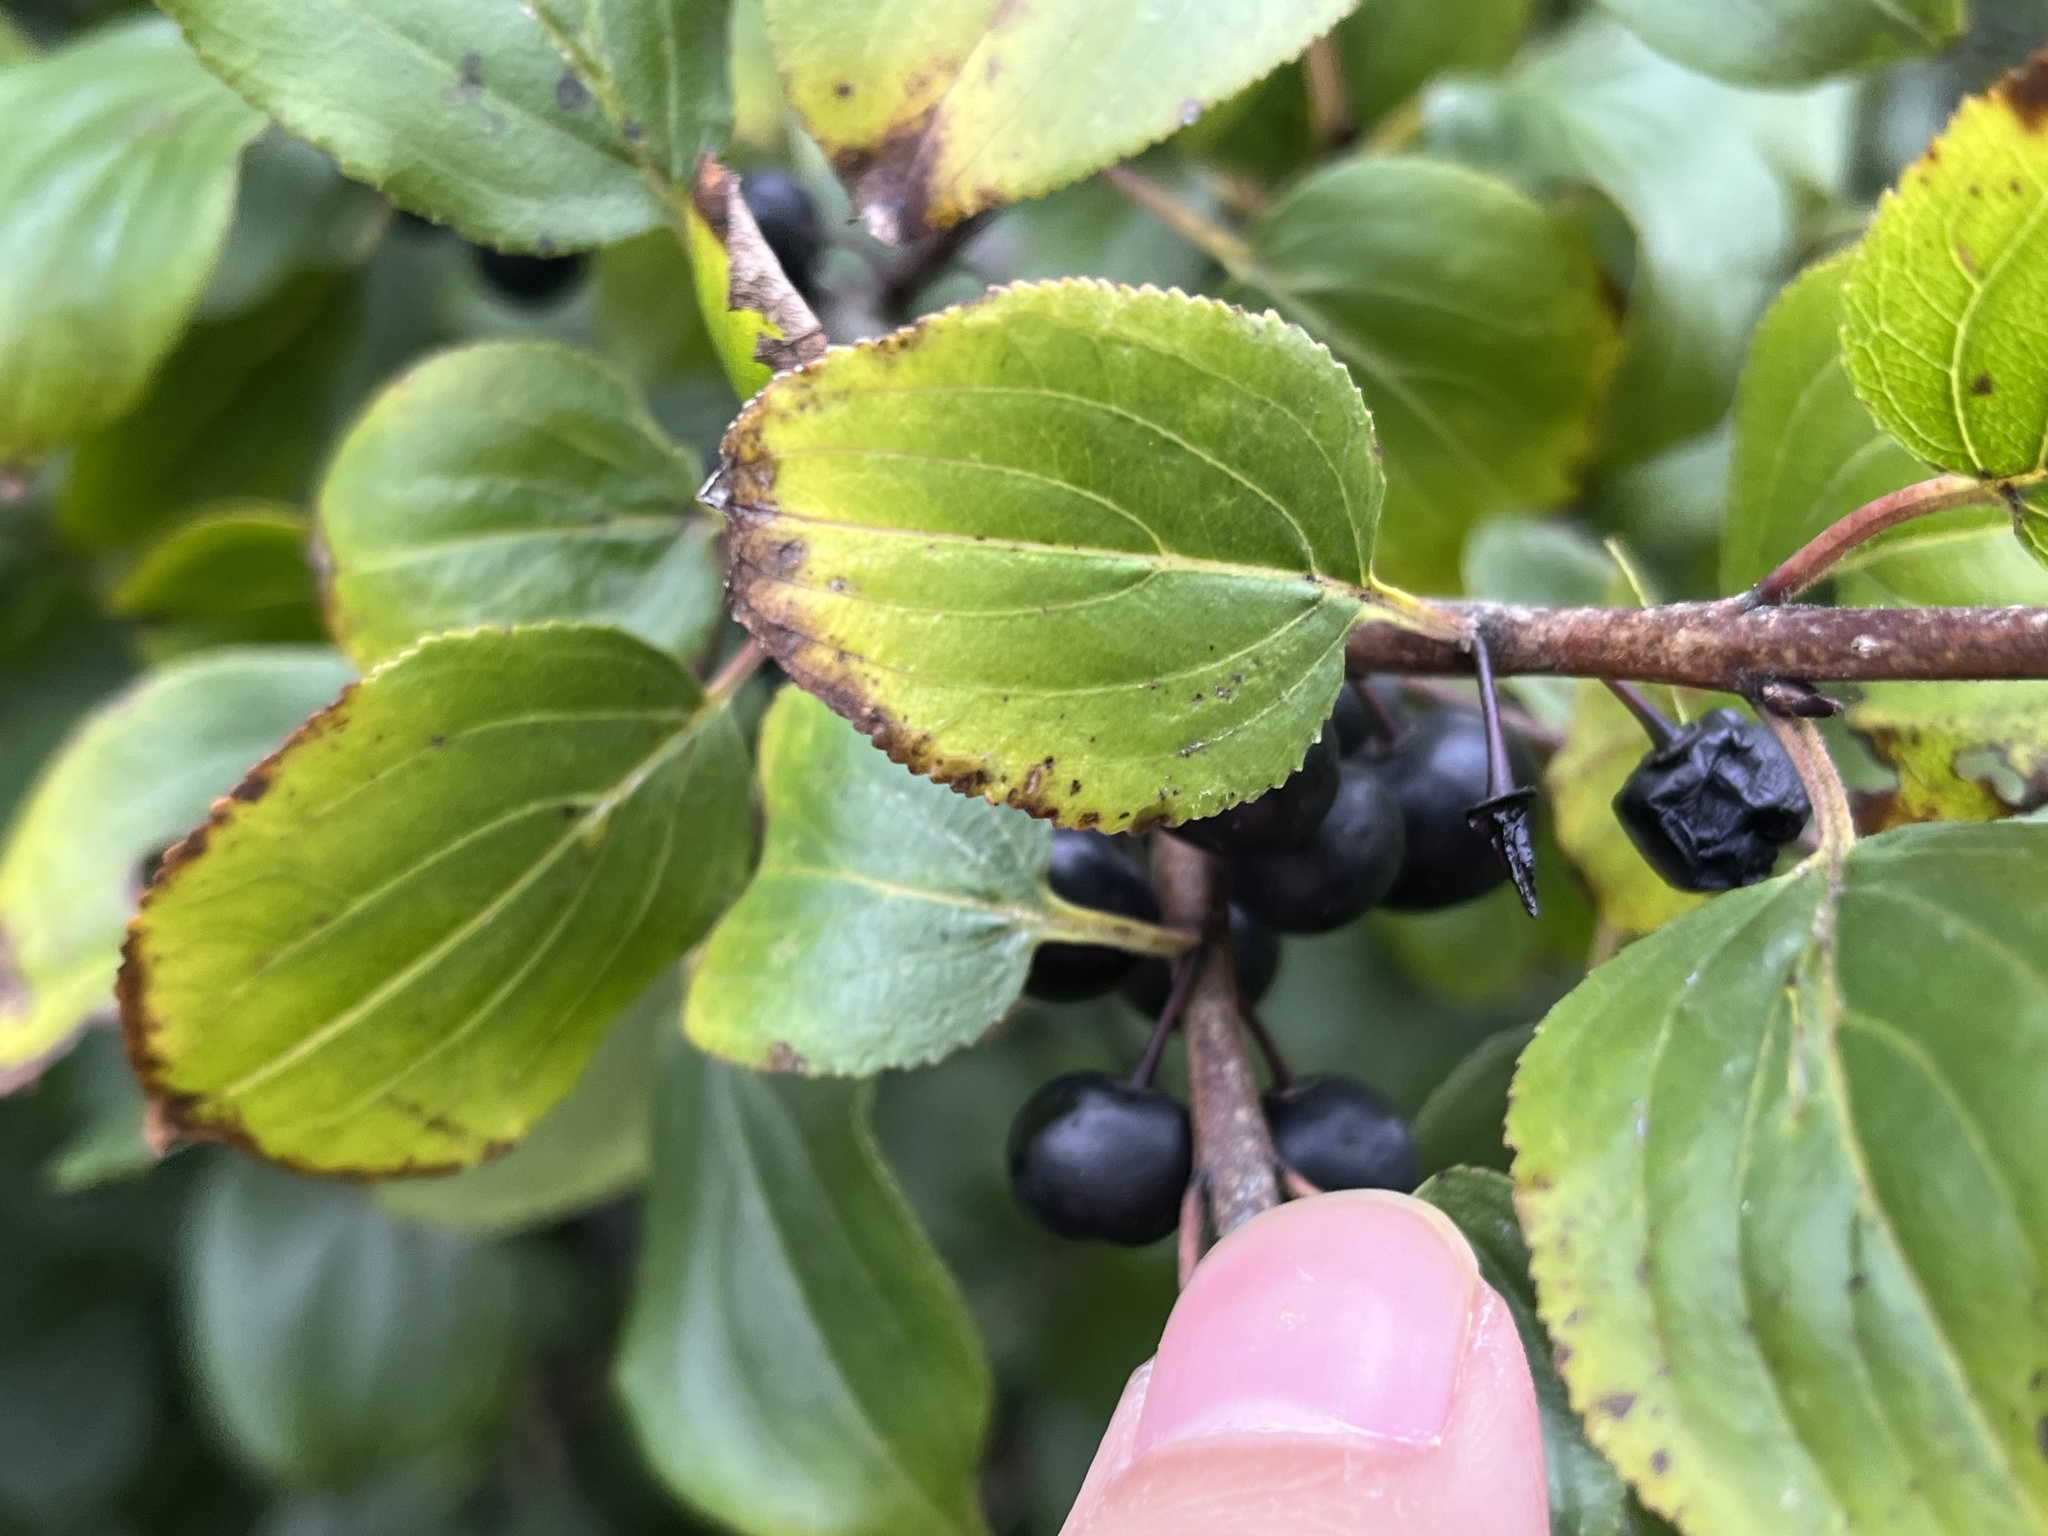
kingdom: Plantae
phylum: Tracheophyta
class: Magnoliopsida
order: Rosales
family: Rhamnaceae
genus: Rhamnus
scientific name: Rhamnus cathartica
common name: Common buckthorn
